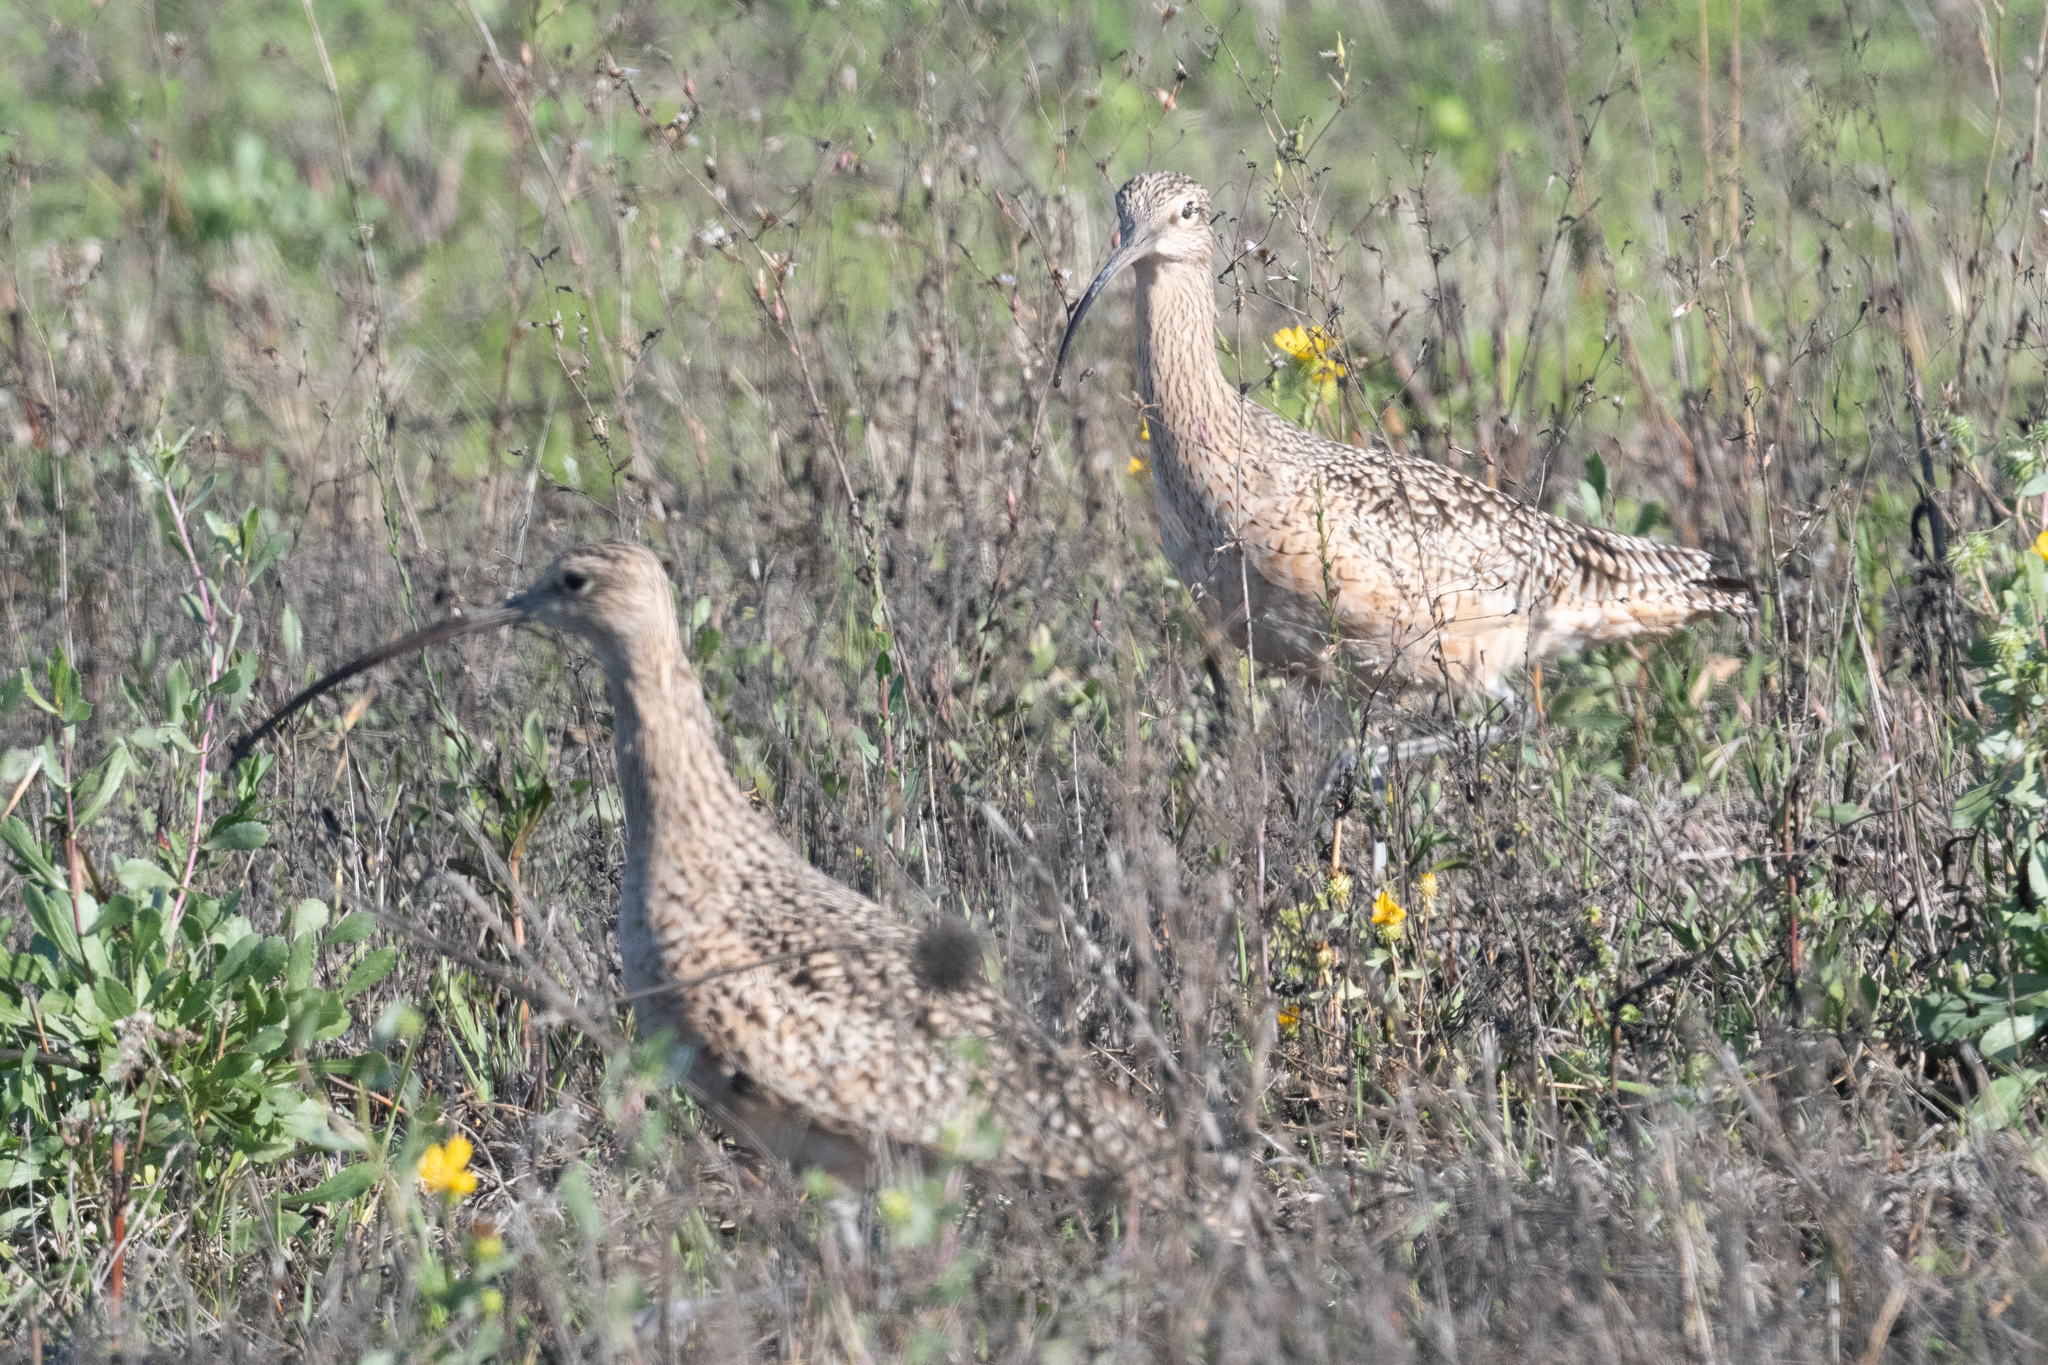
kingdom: Animalia
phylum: Chordata
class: Aves
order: Charadriiformes
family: Scolopacidae
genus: Numenius
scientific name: Numenius americanus
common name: Long-billed curlew
